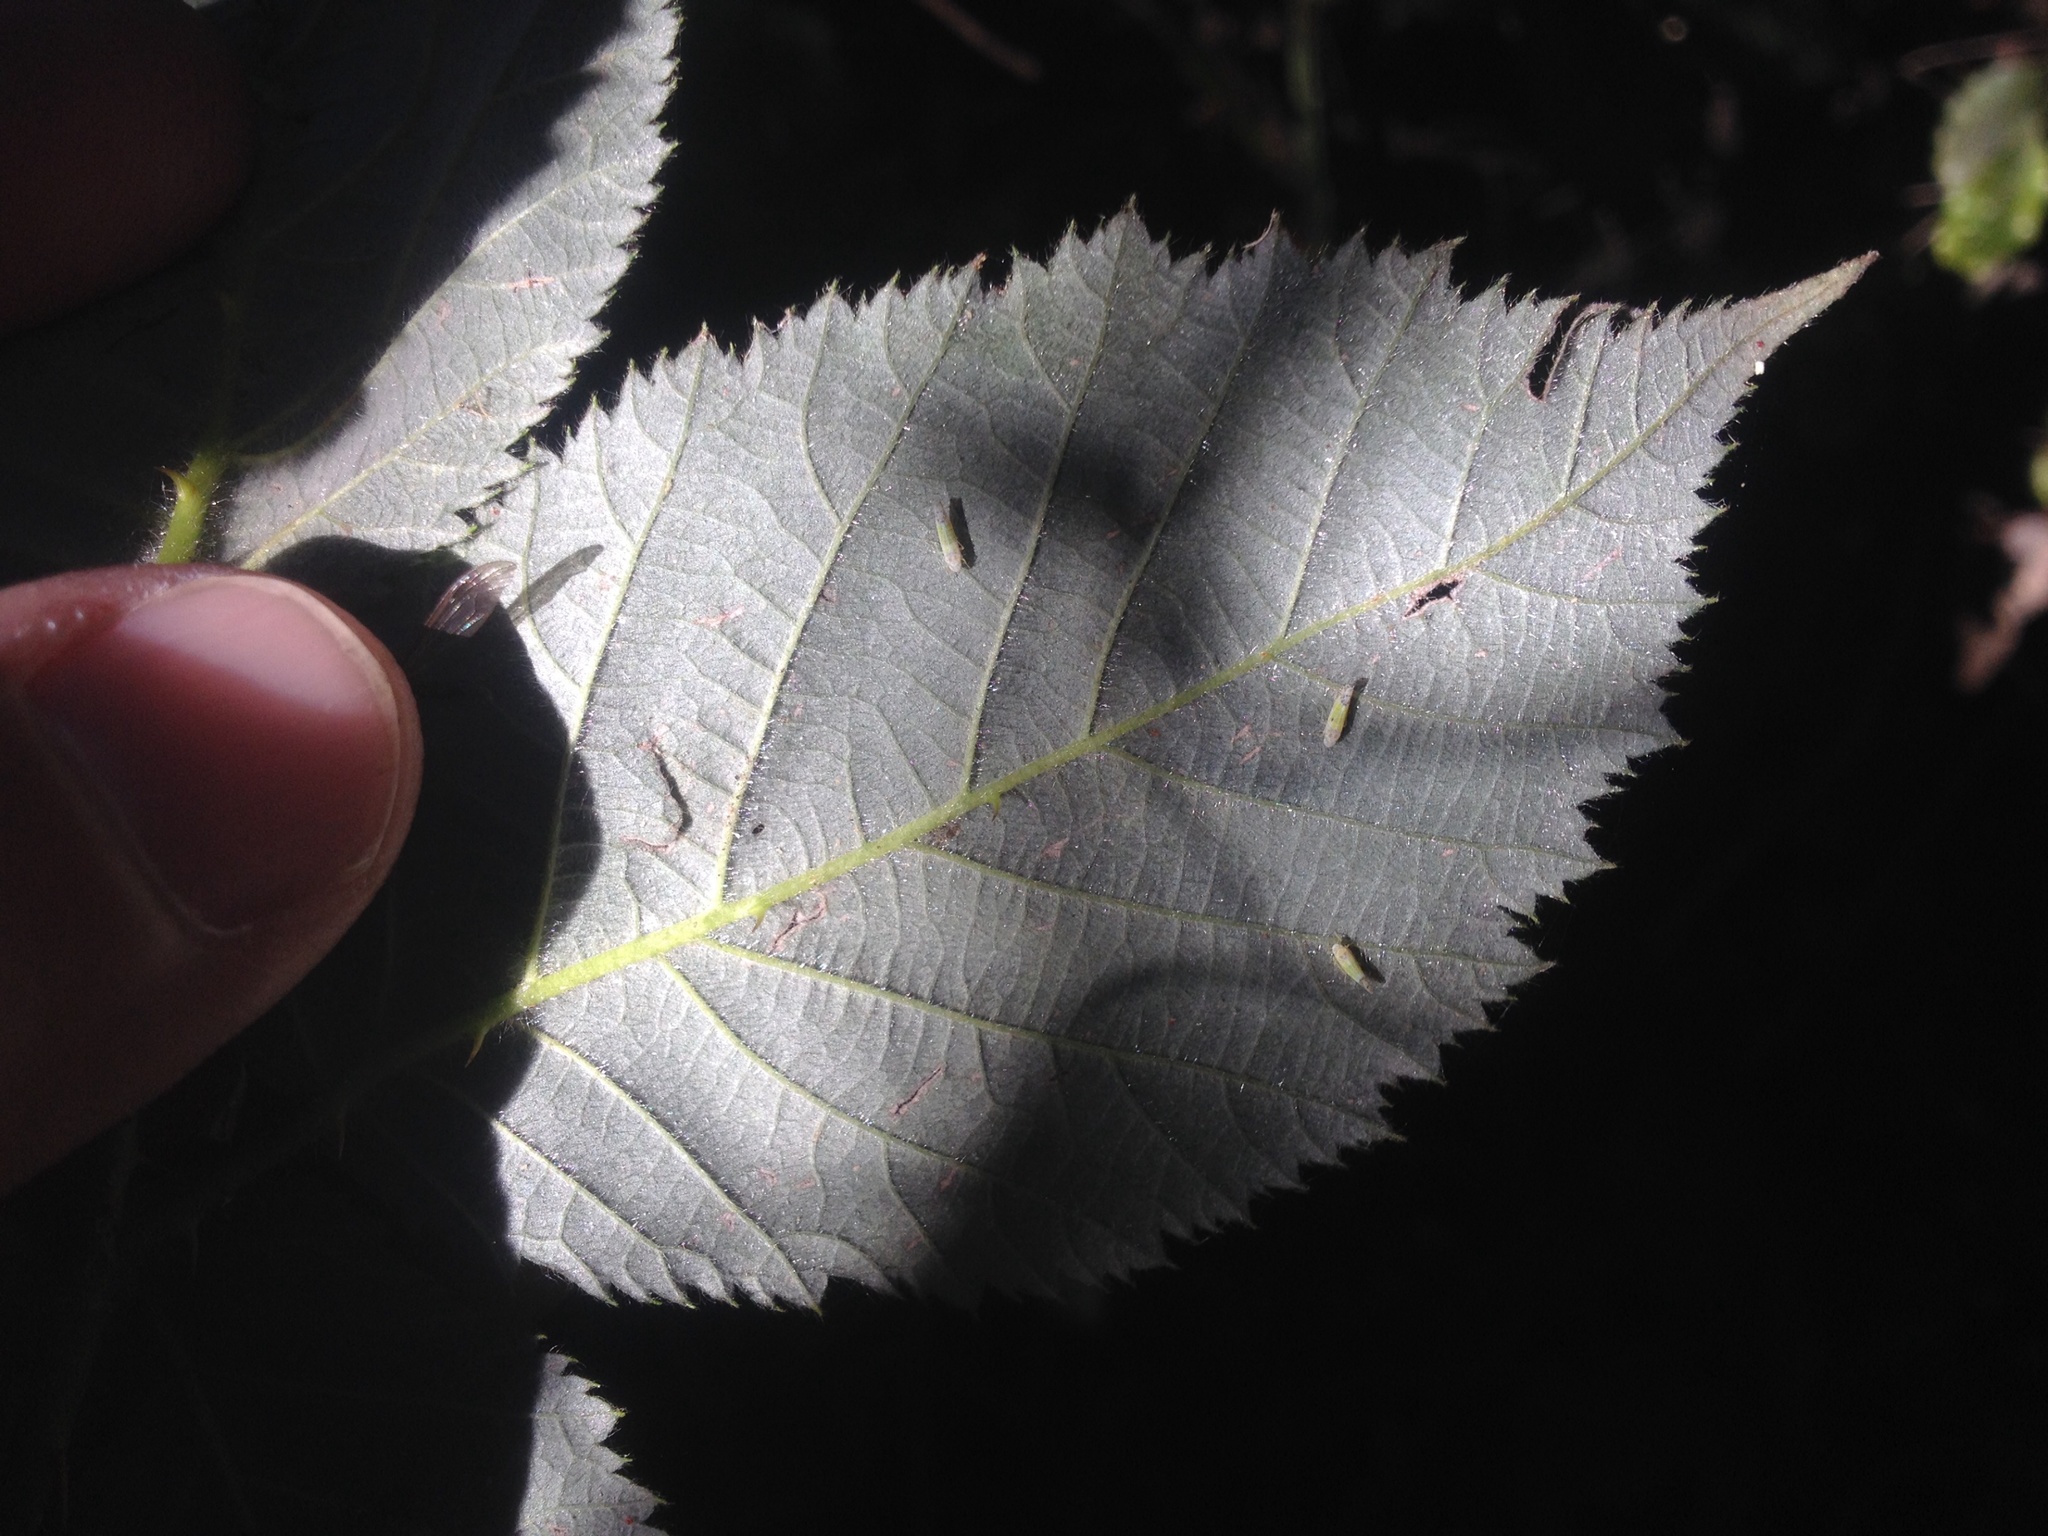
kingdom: Animalia
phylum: Arthropoda
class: Insecta
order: Hemiptera
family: Cicadellidae
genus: Ribautiana
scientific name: Ribautiana tenerrima
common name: Bramble leafhopper
